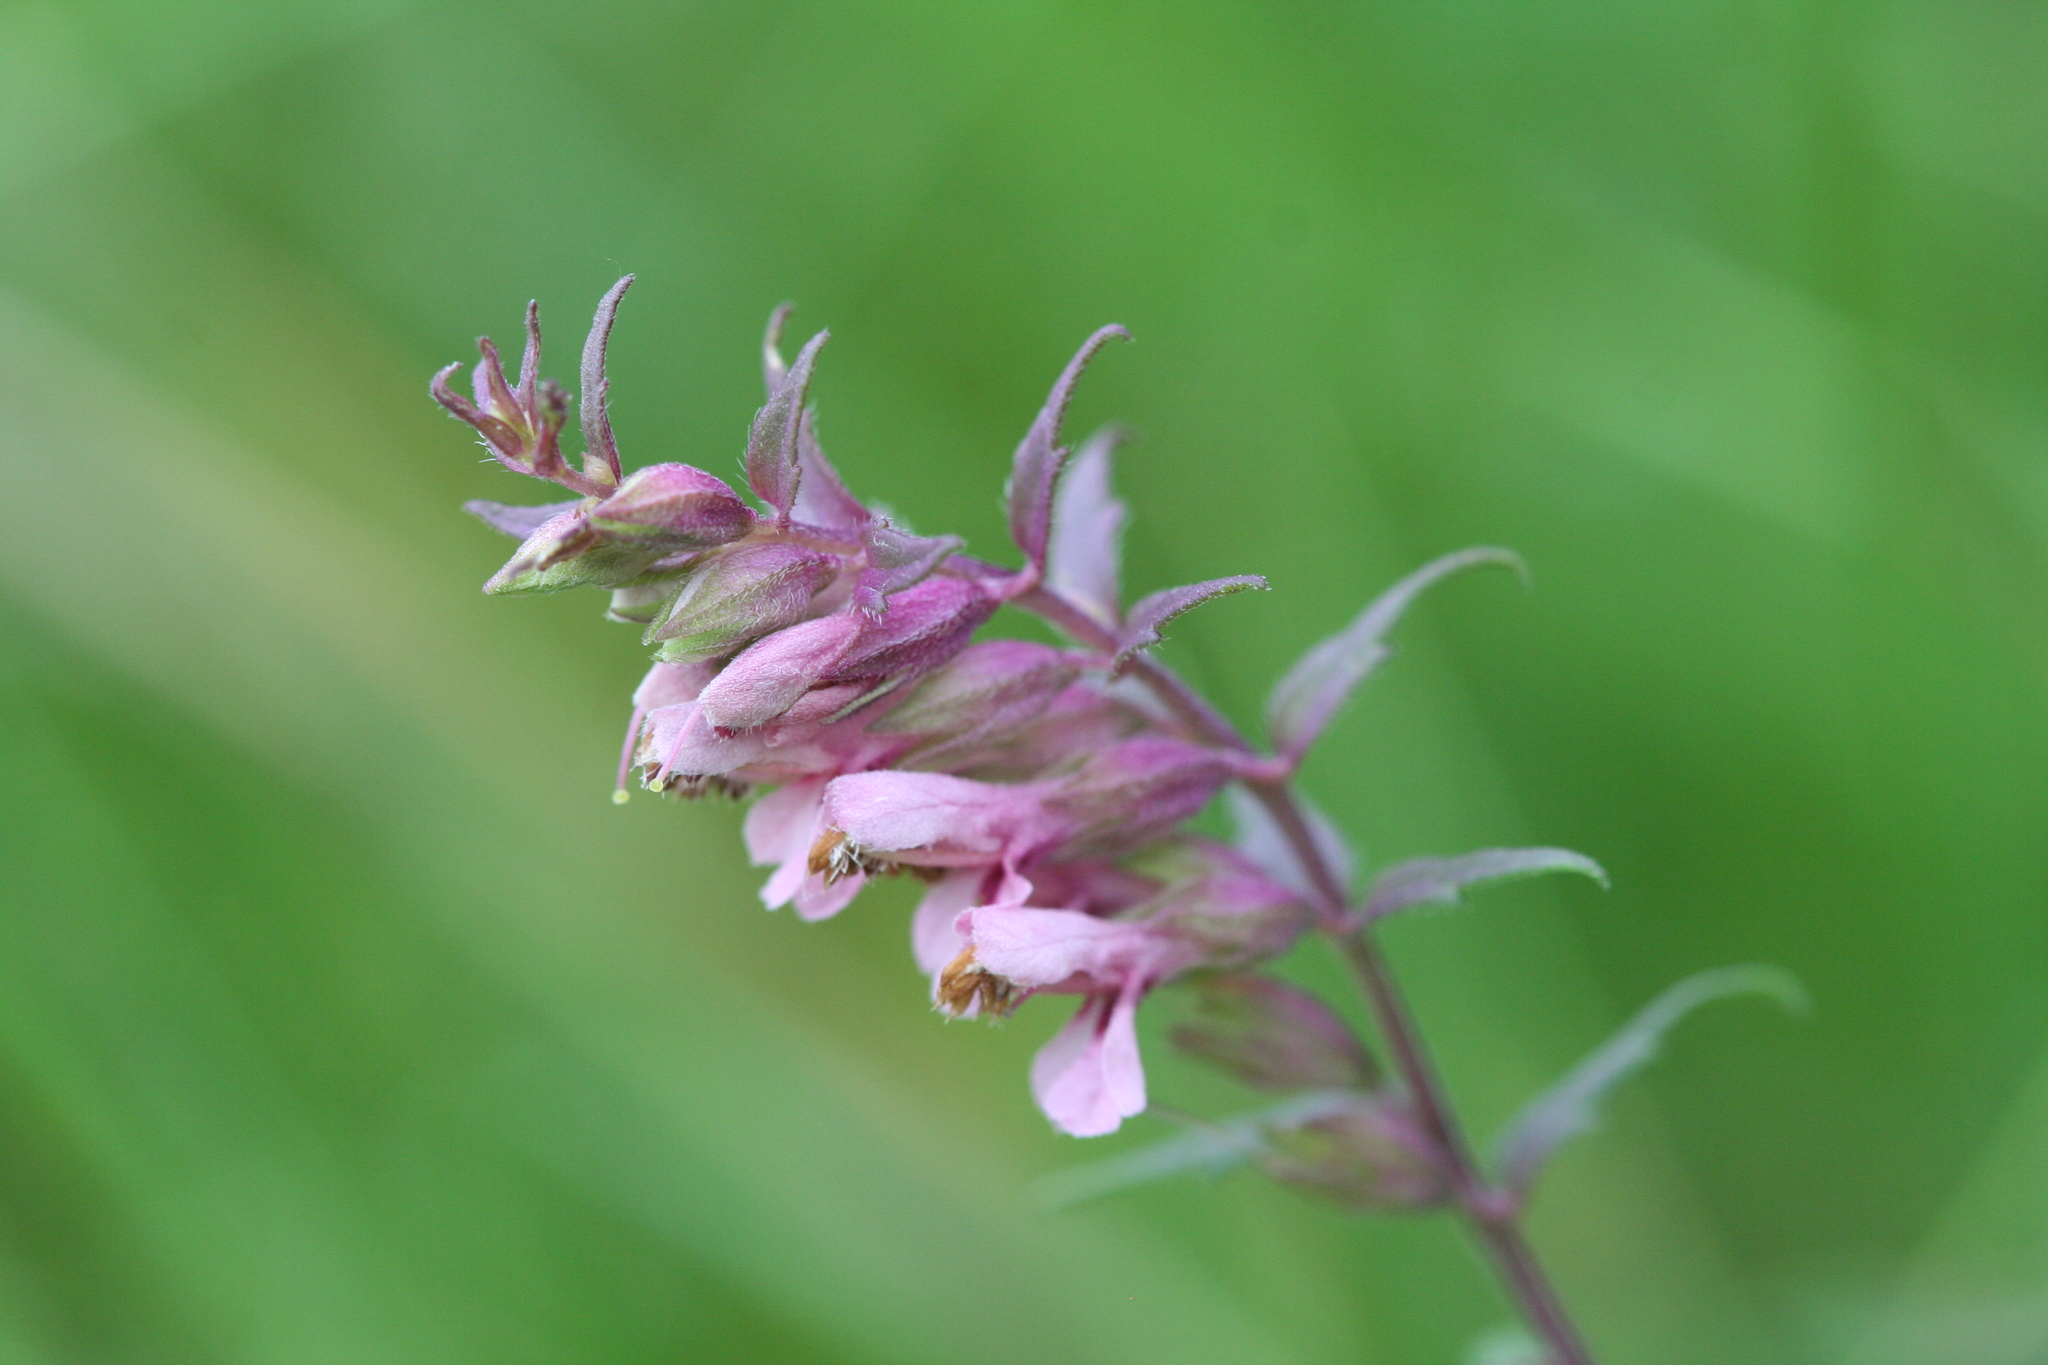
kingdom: Plantae
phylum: Tracheophyta
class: Magnoliopsida
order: Lamiales
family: Orobanchaceae
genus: Odontites
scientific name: Odontites vulgaris
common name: Broomrape
